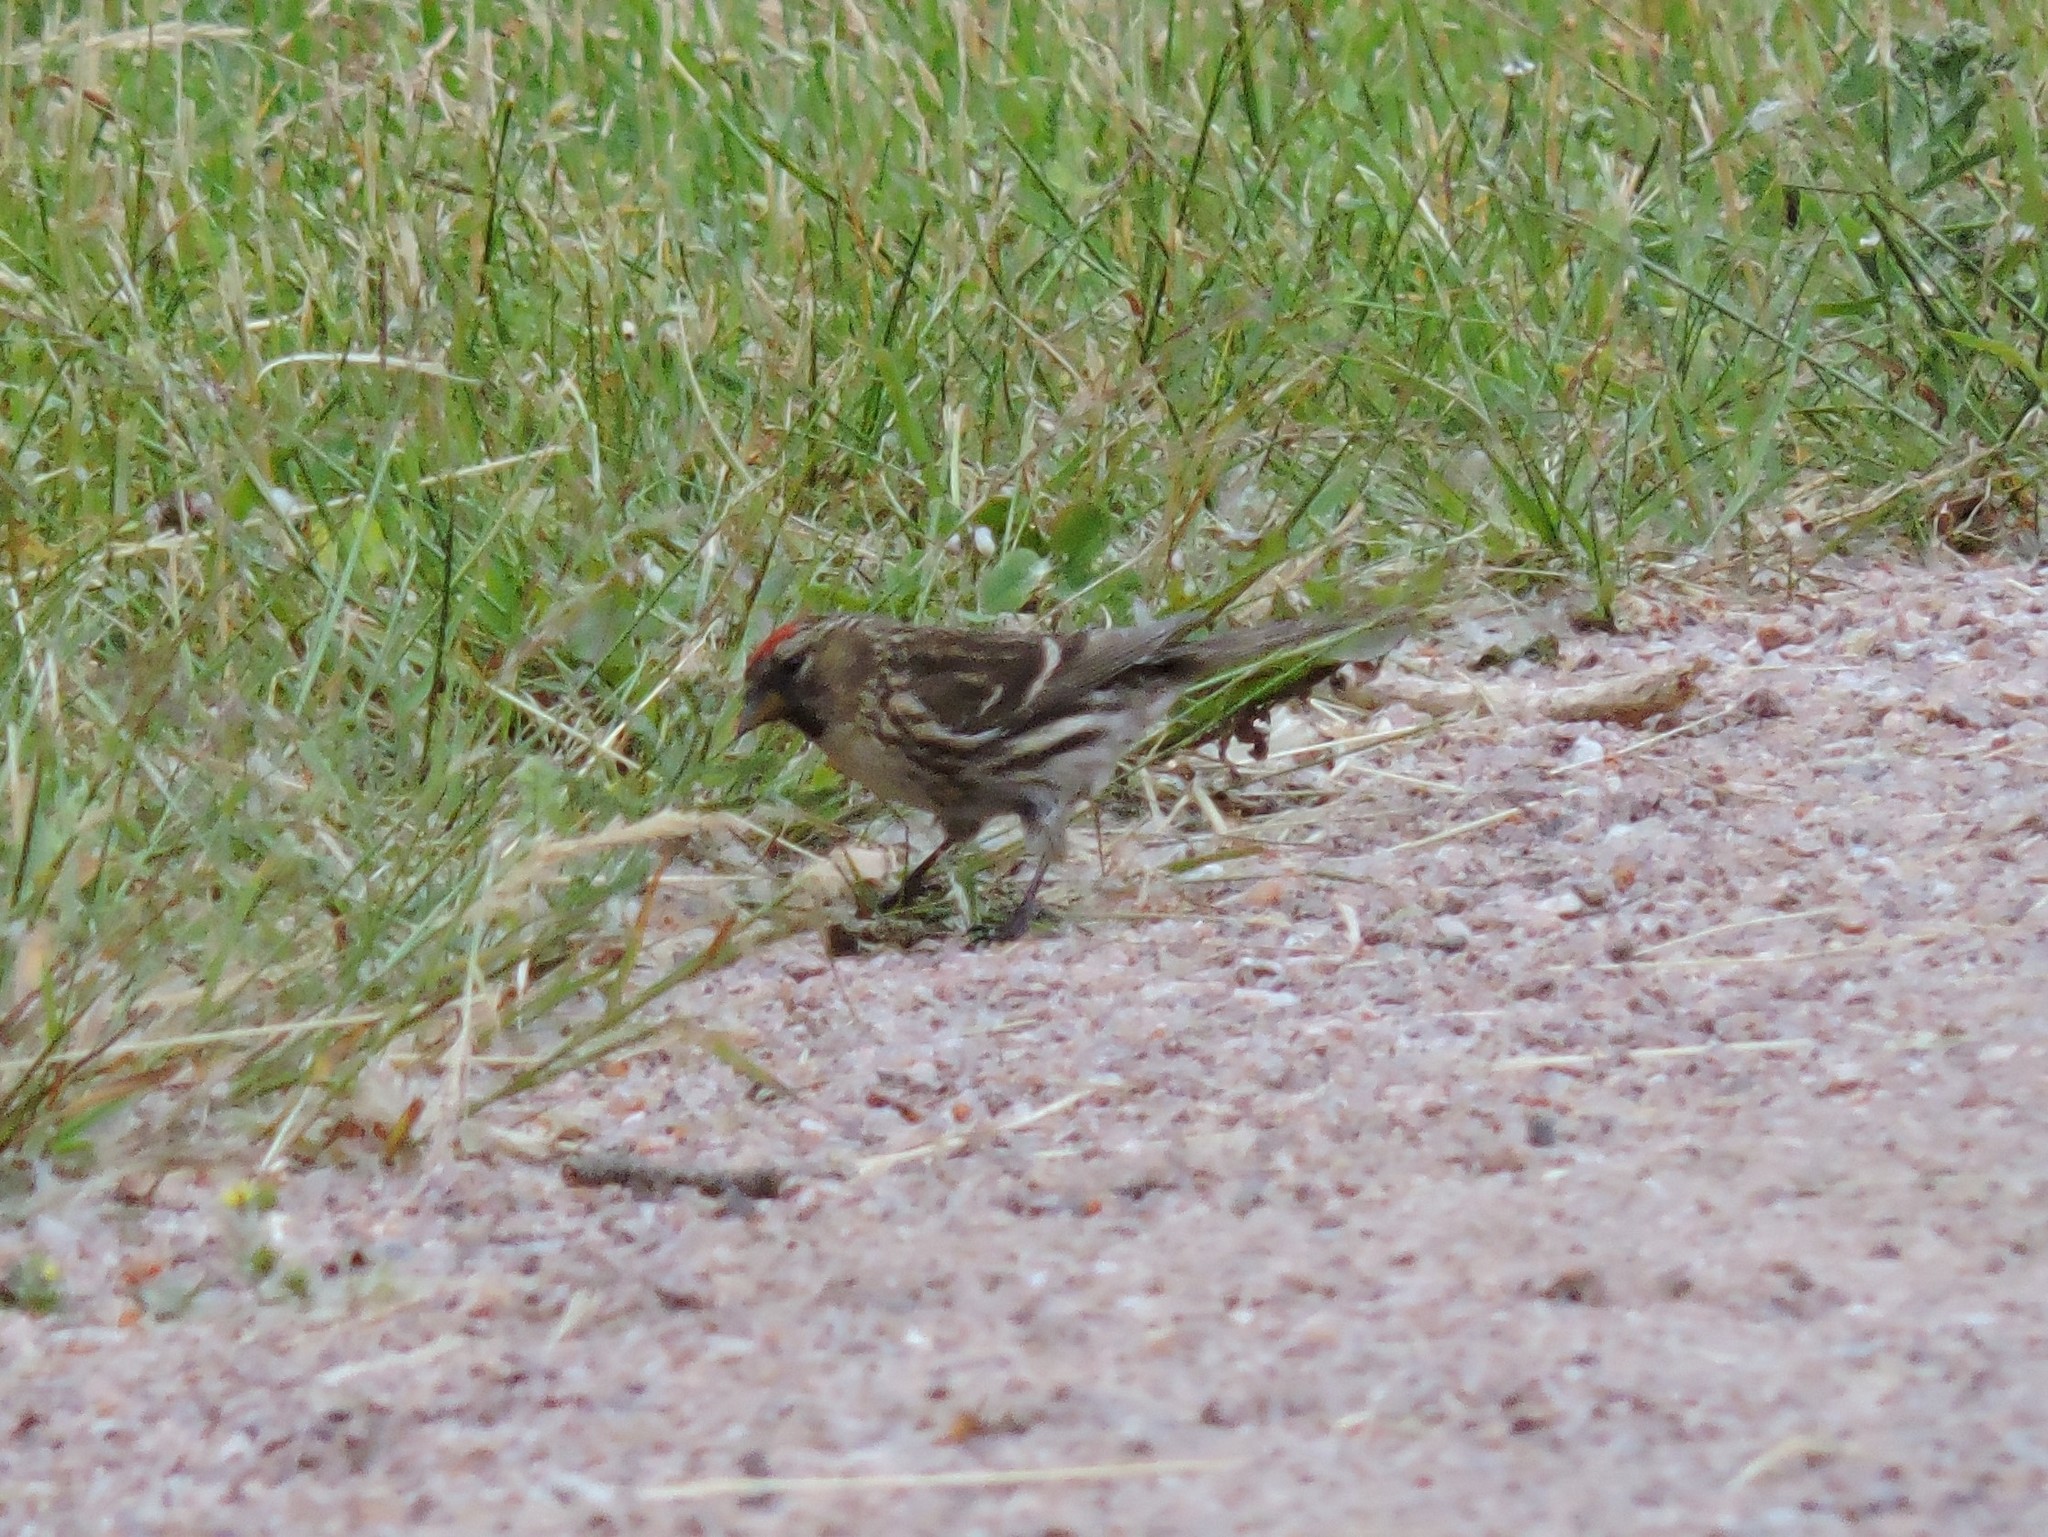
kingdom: Animalia
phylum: Chordata
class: Aves
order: Passeriformes
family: Fringillidae
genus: Acanthis
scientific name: Acanthis flammea
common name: Common redpoll
